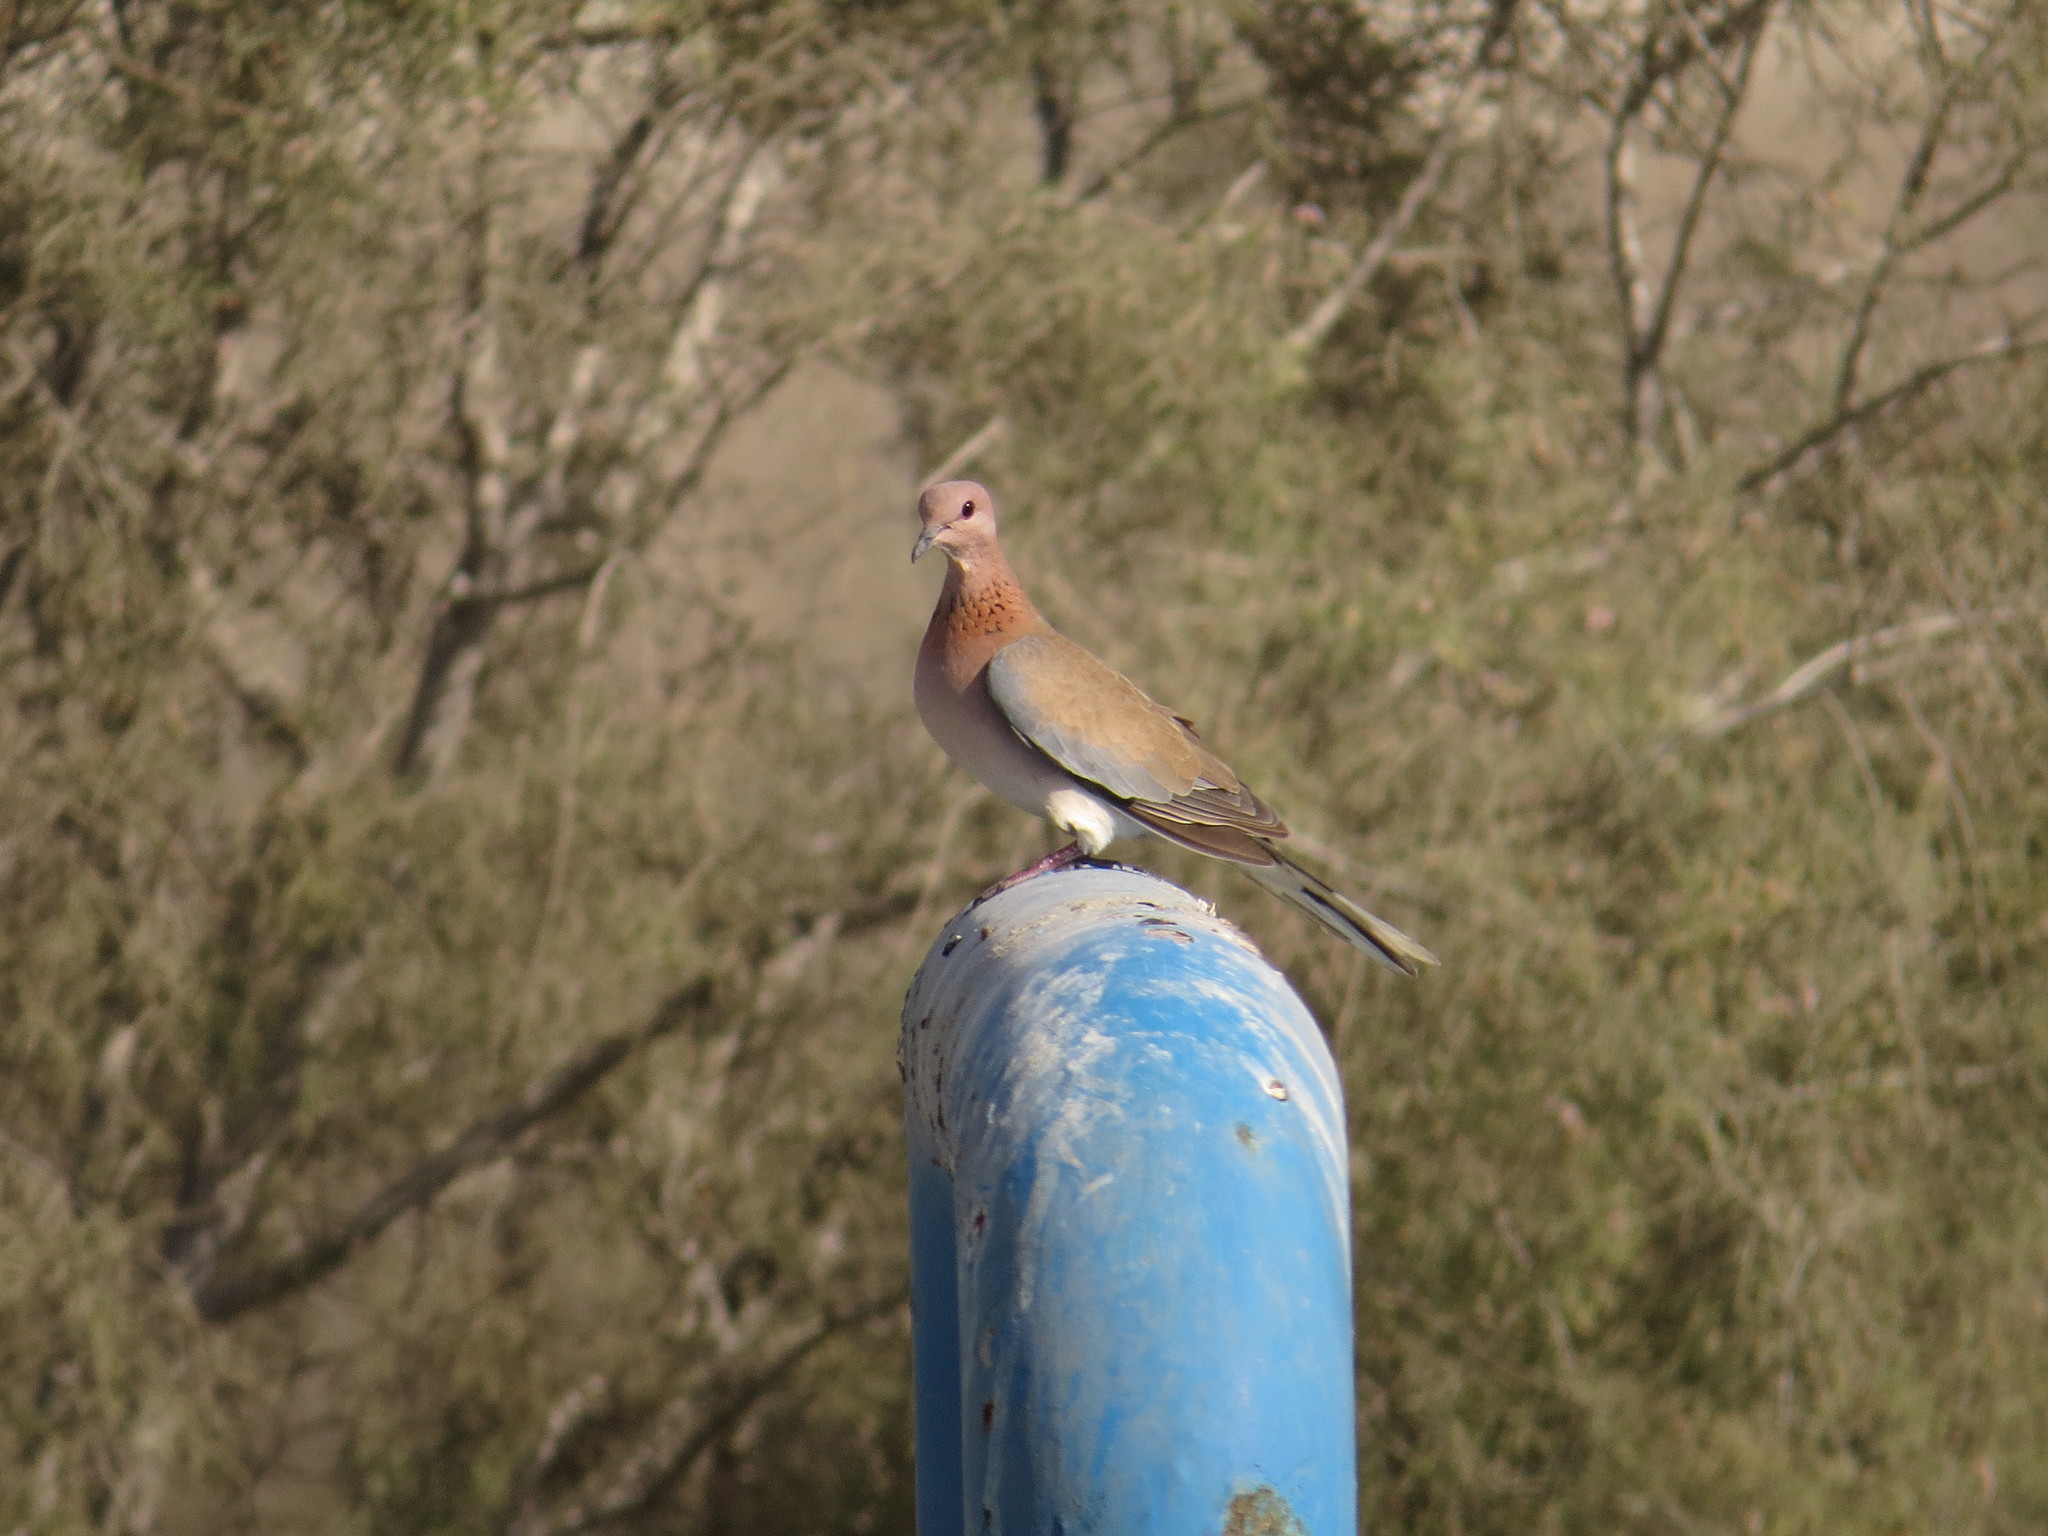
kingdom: Animalia
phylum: Chordata
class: Aves
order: Columbiformes
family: Columbidae
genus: Spilopelia
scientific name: Spilopelia senegalensis
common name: Laughing dove
